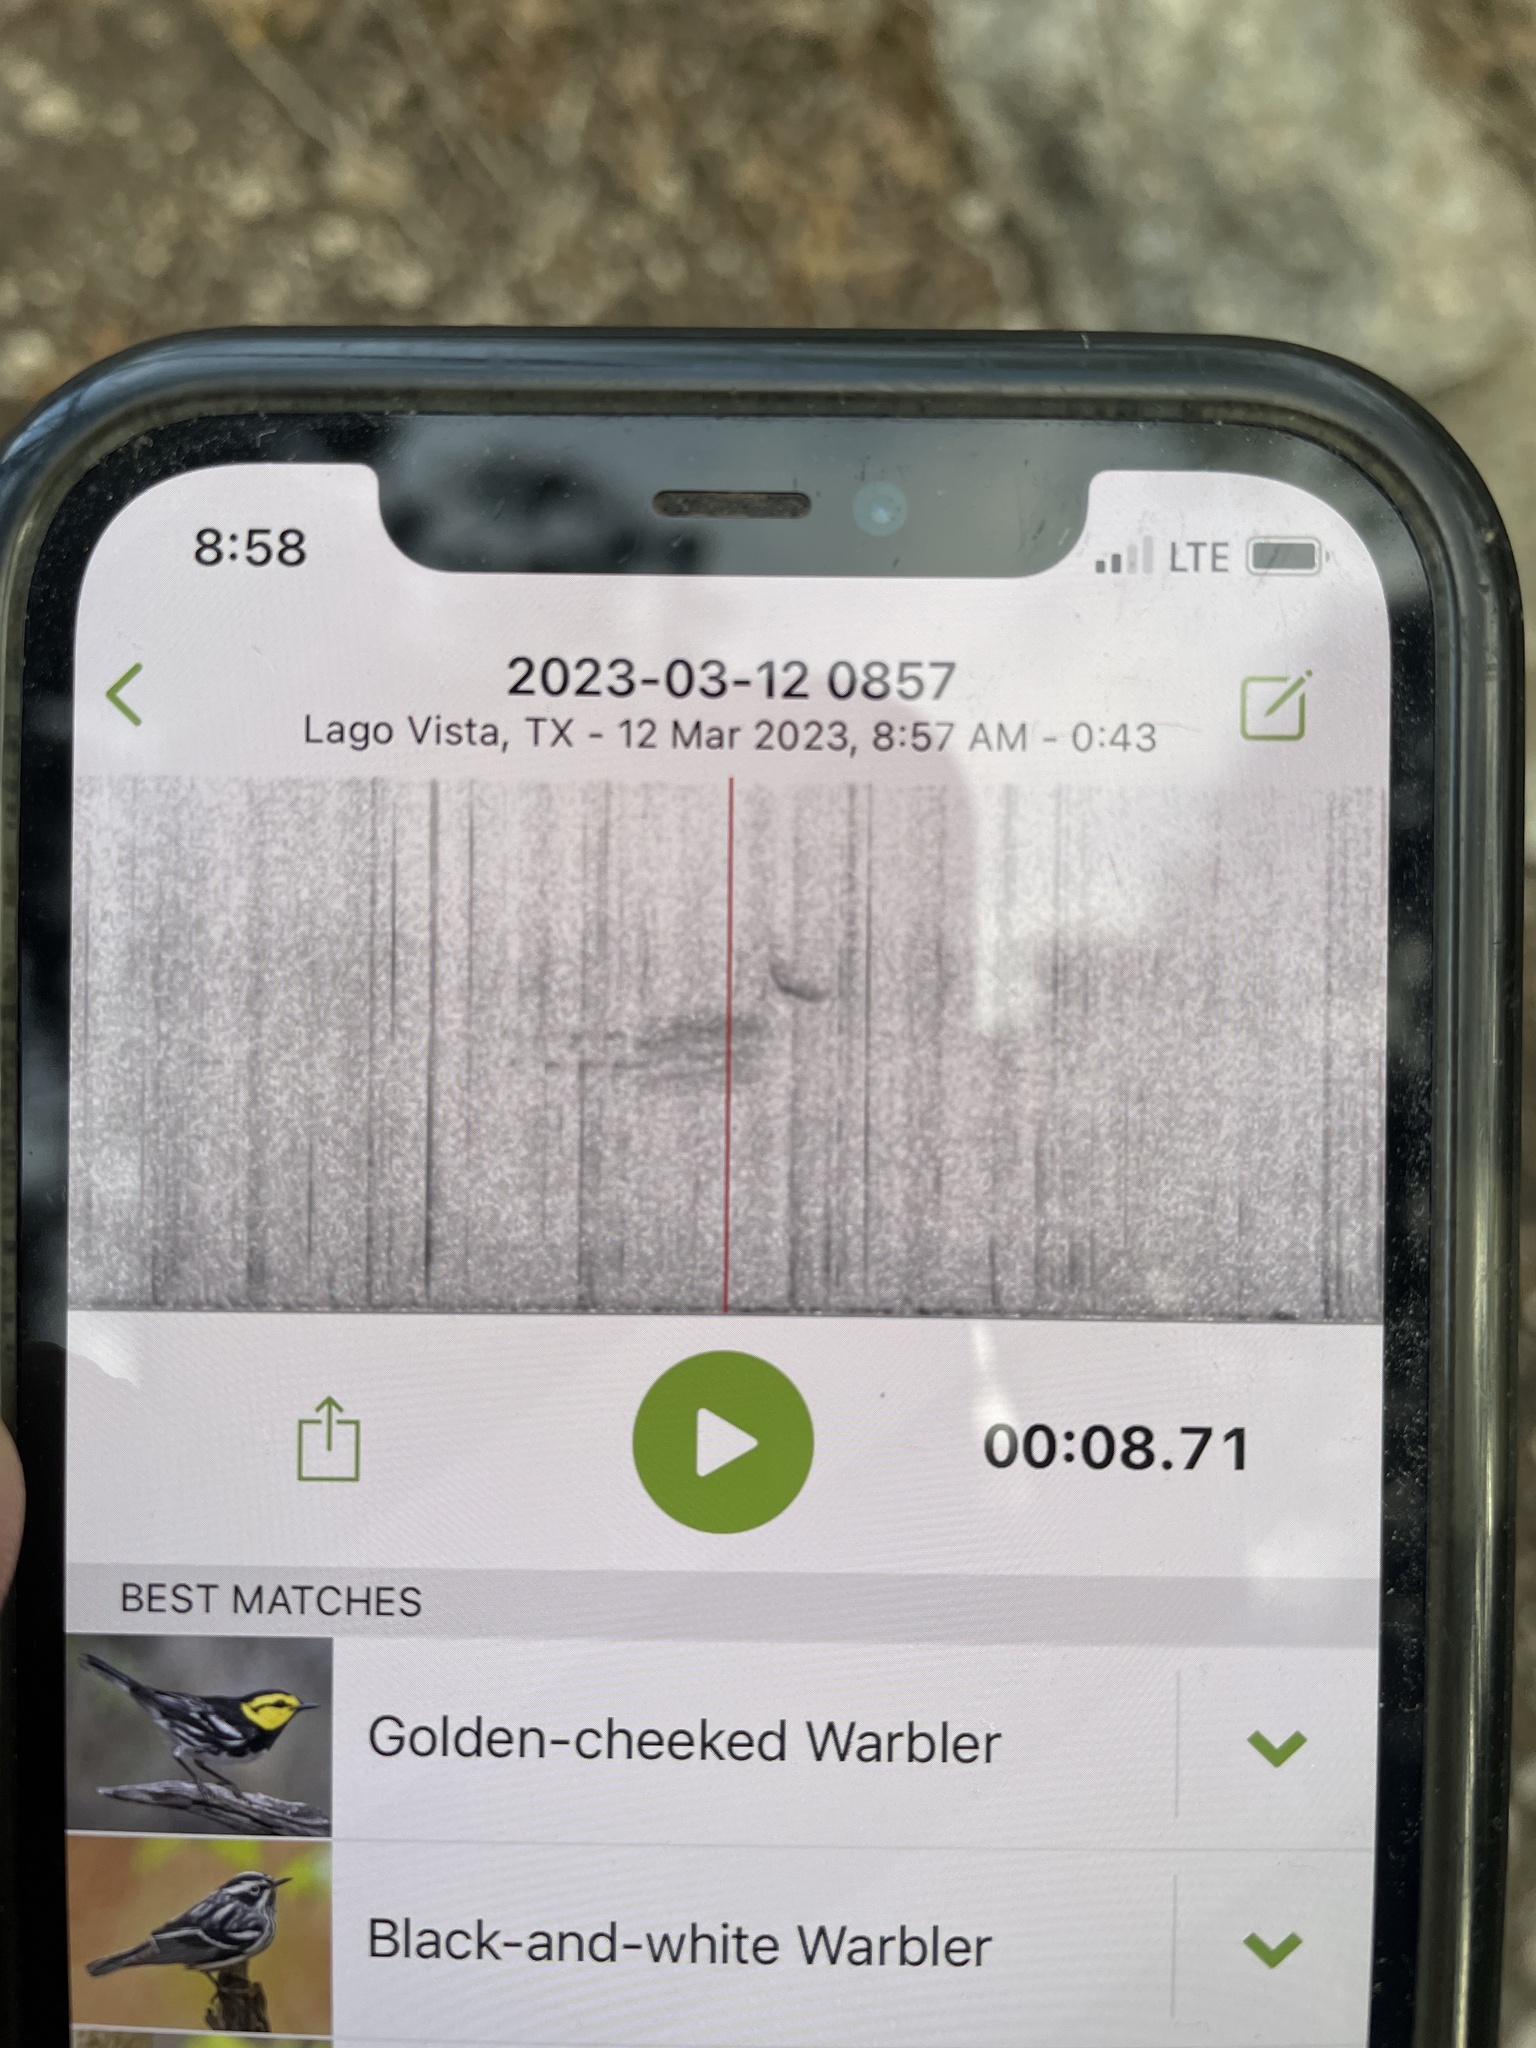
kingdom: Animalia
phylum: Chordata
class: Aves
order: Passeriformes
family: Parulidae
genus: Setophaga
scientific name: Setophaga chrysoparia
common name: Golden-cheeked warbler
